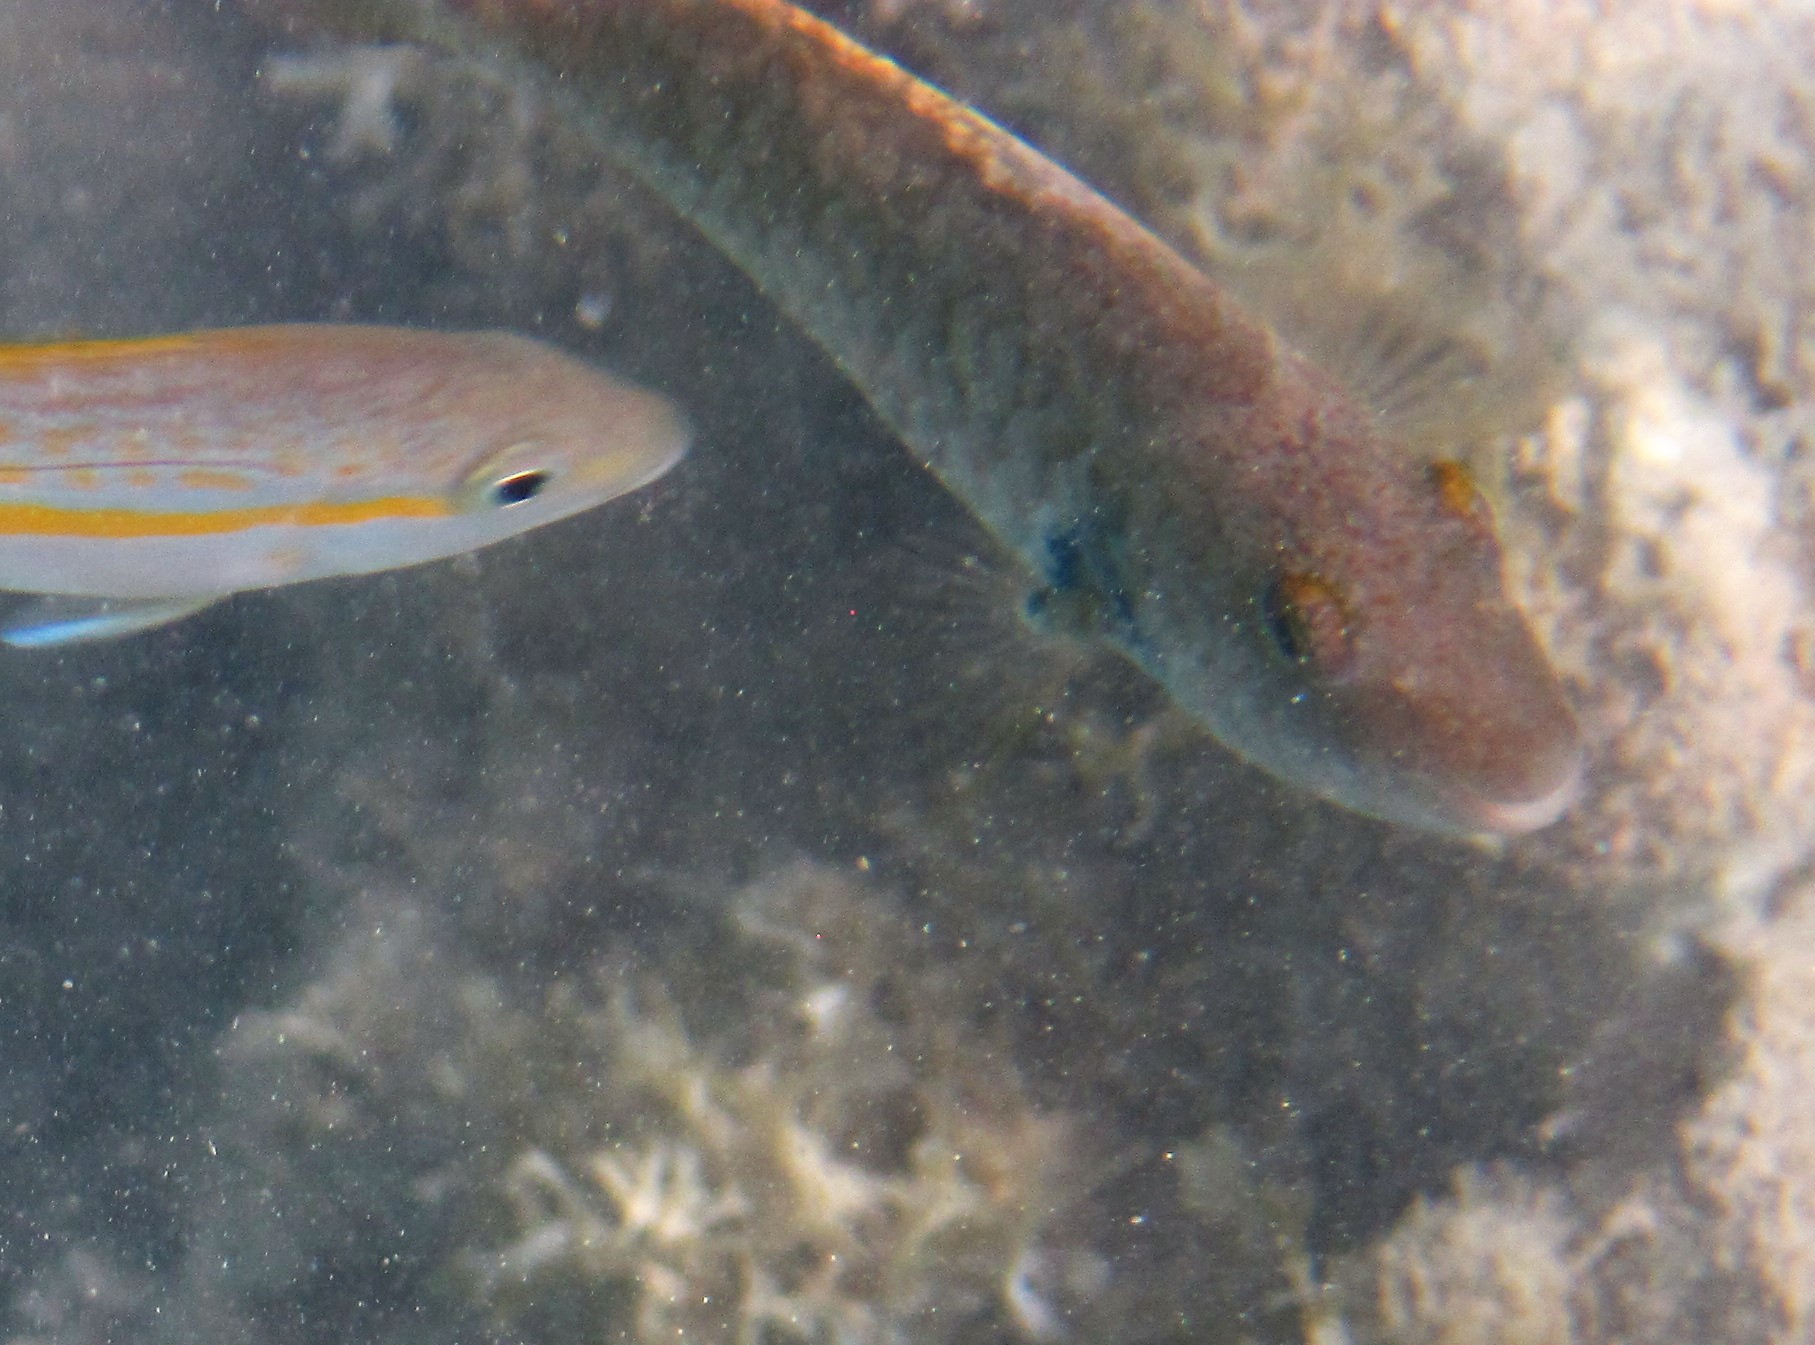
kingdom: Animalia
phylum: Chordata
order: Perciformes
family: Scaridae
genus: Sparisoma
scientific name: Sparisoma
